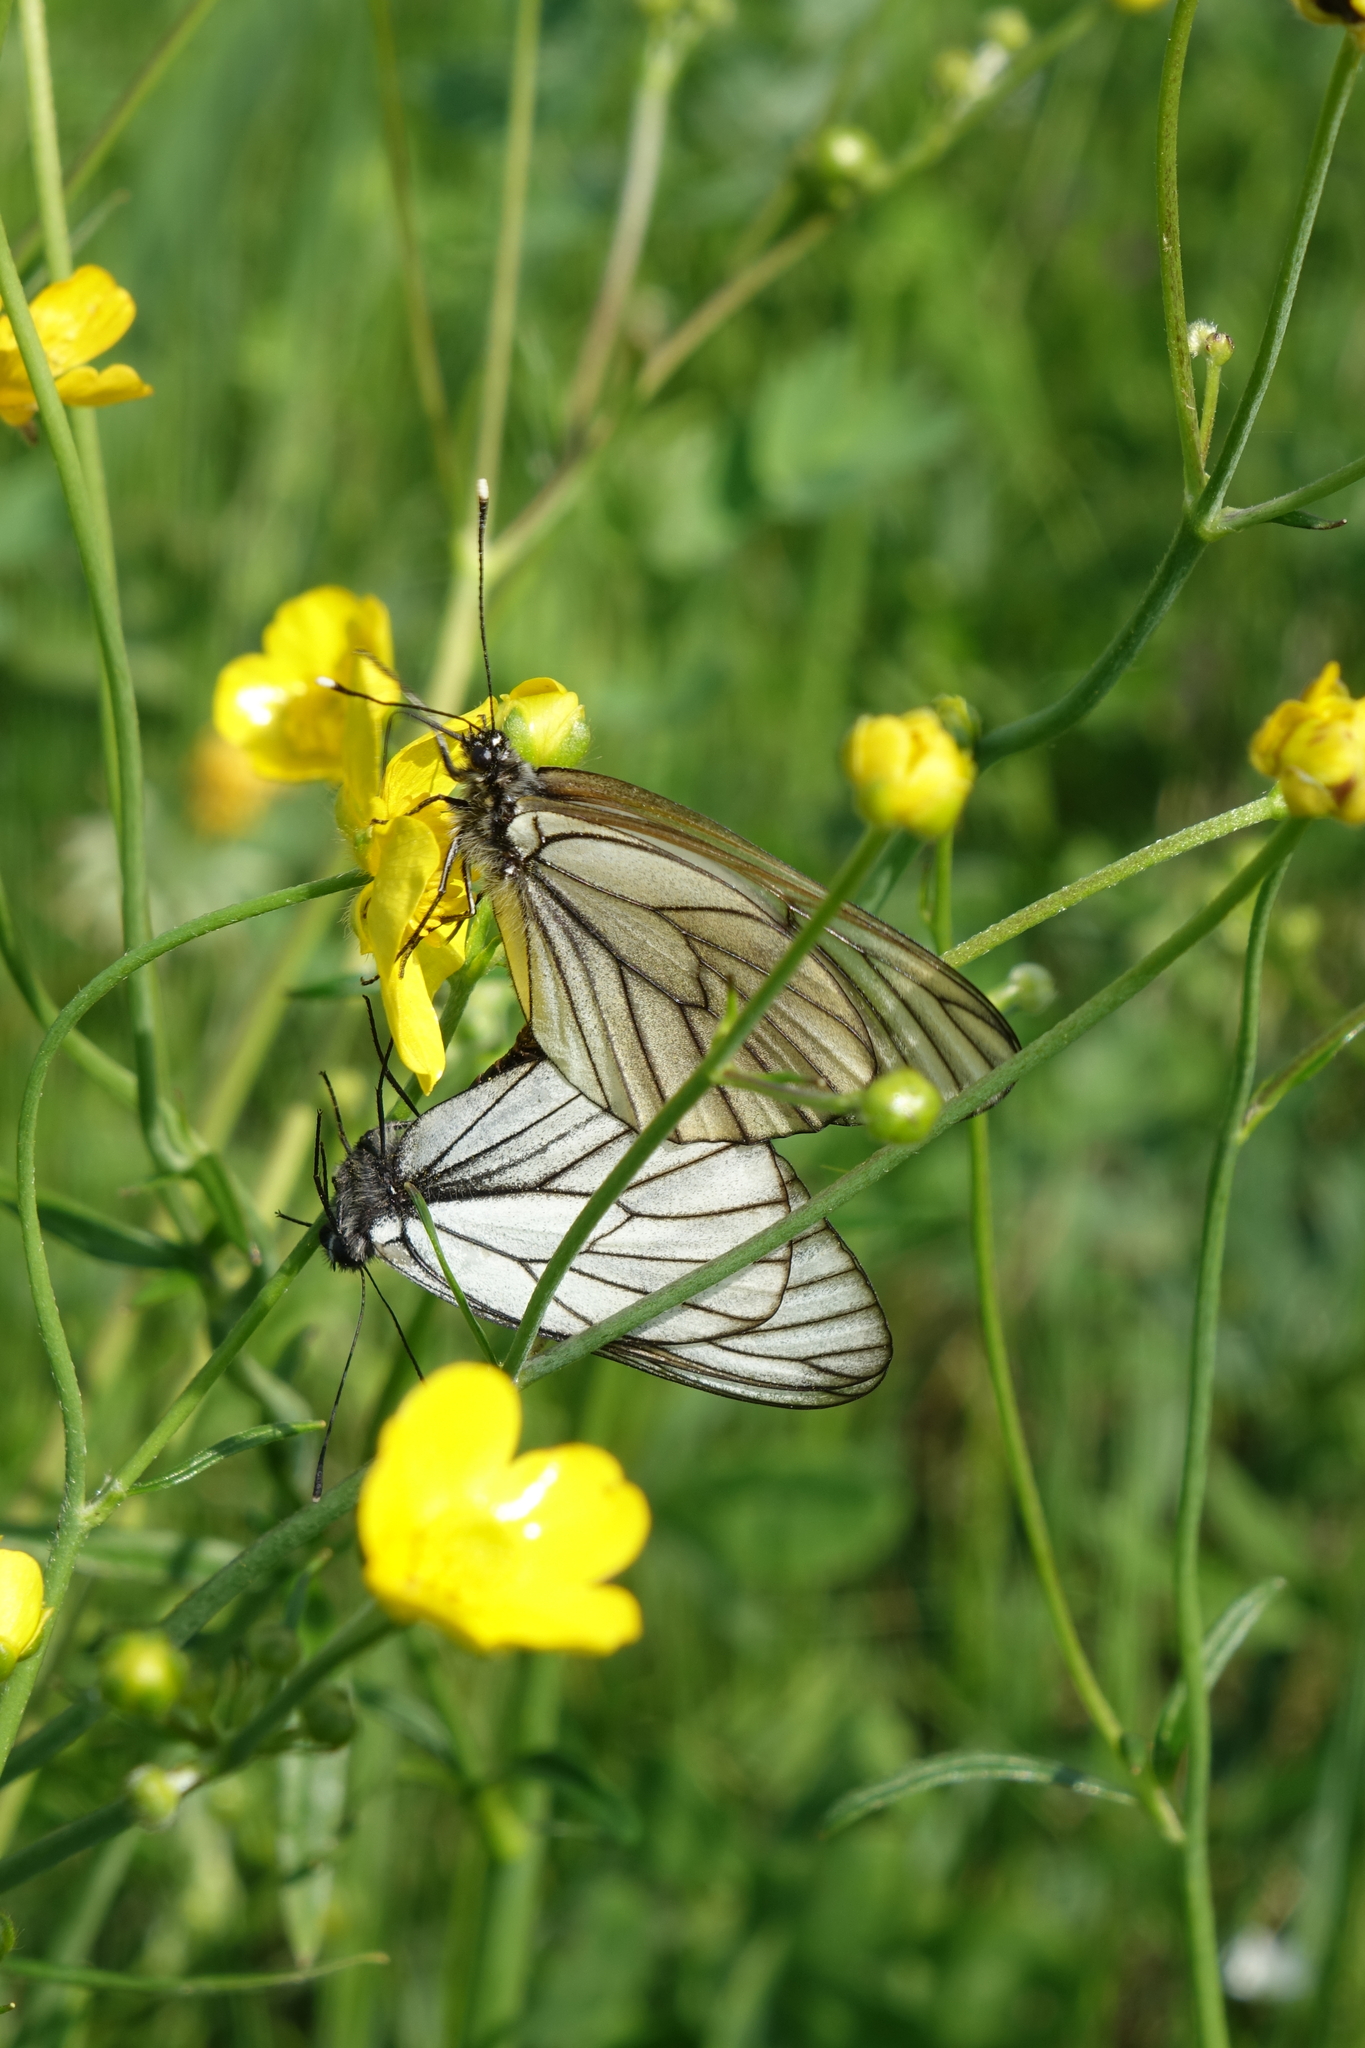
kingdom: Animalia
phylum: Arthropoda
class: Insecta
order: Lepidoptera
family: Pieridae
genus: Aporia
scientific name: Aporia crataegi
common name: Black-veined white
